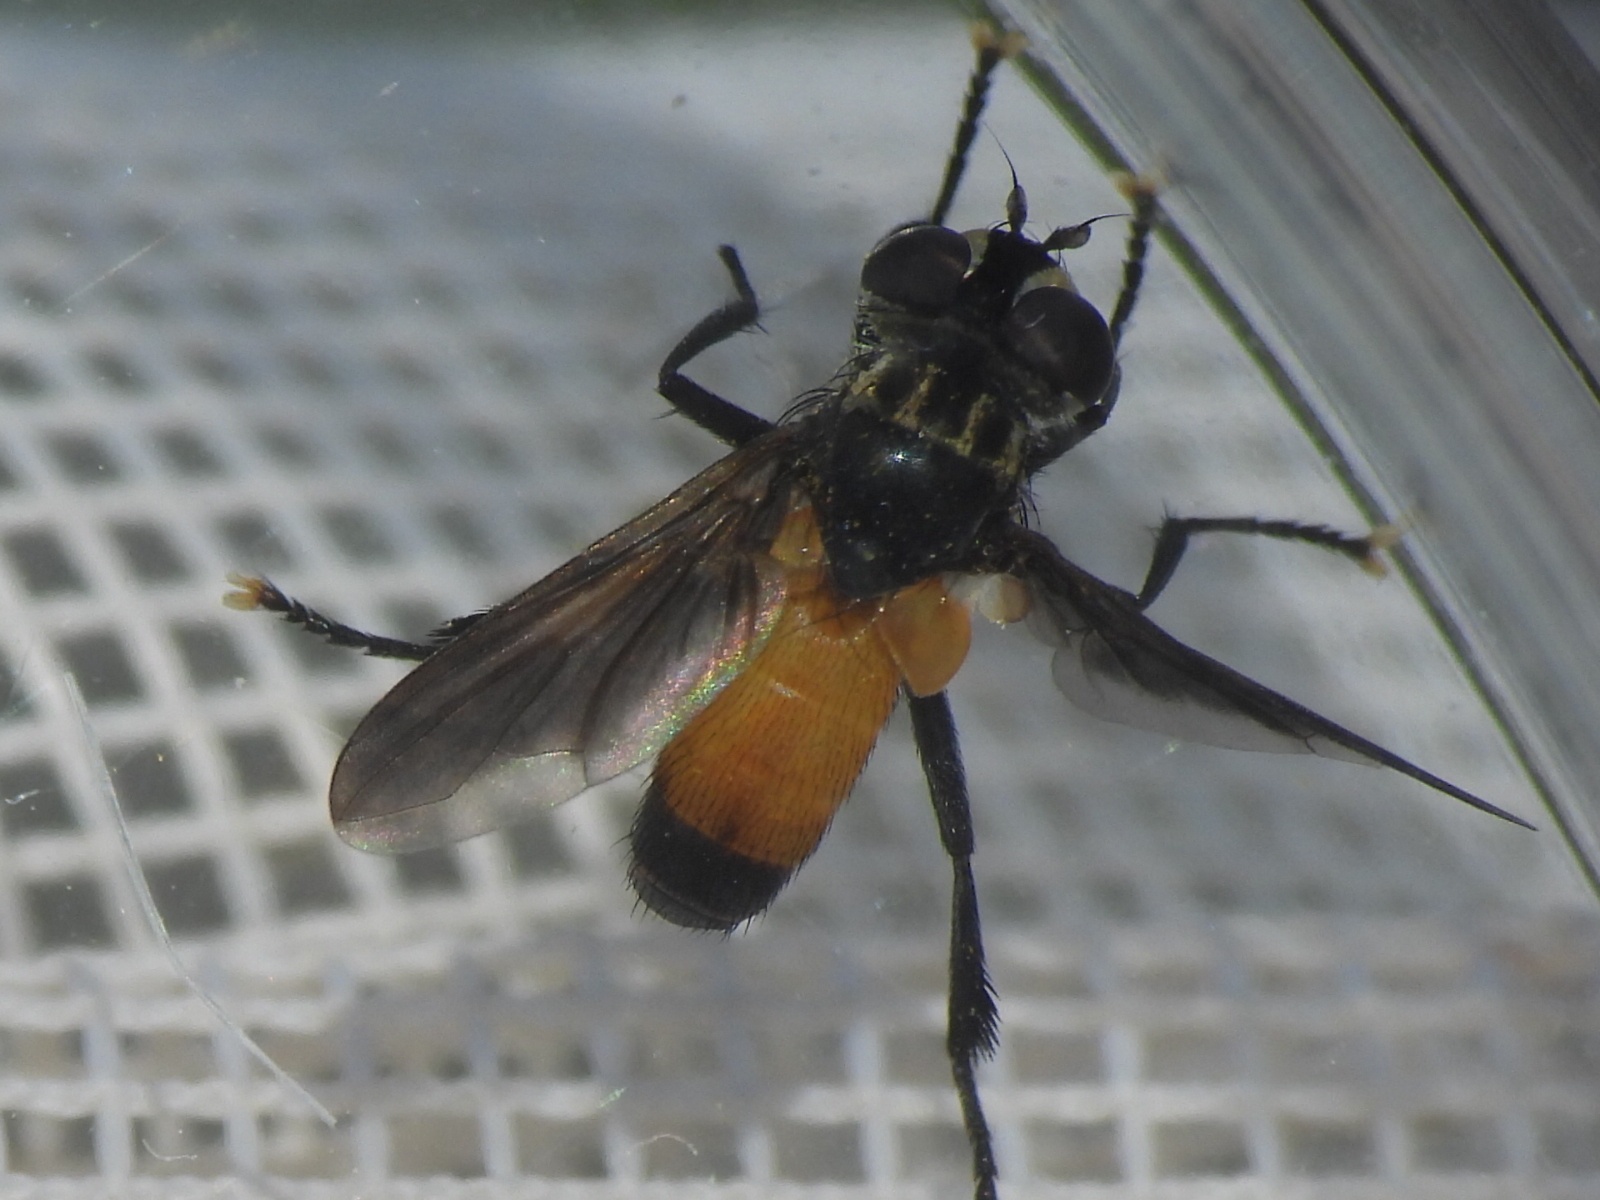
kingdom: Animalia
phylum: Arthropoda
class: Insecta
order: Diptera
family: Tachinidae
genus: Trichopoda
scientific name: Trichopoda pennipes
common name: Tachinid fly
